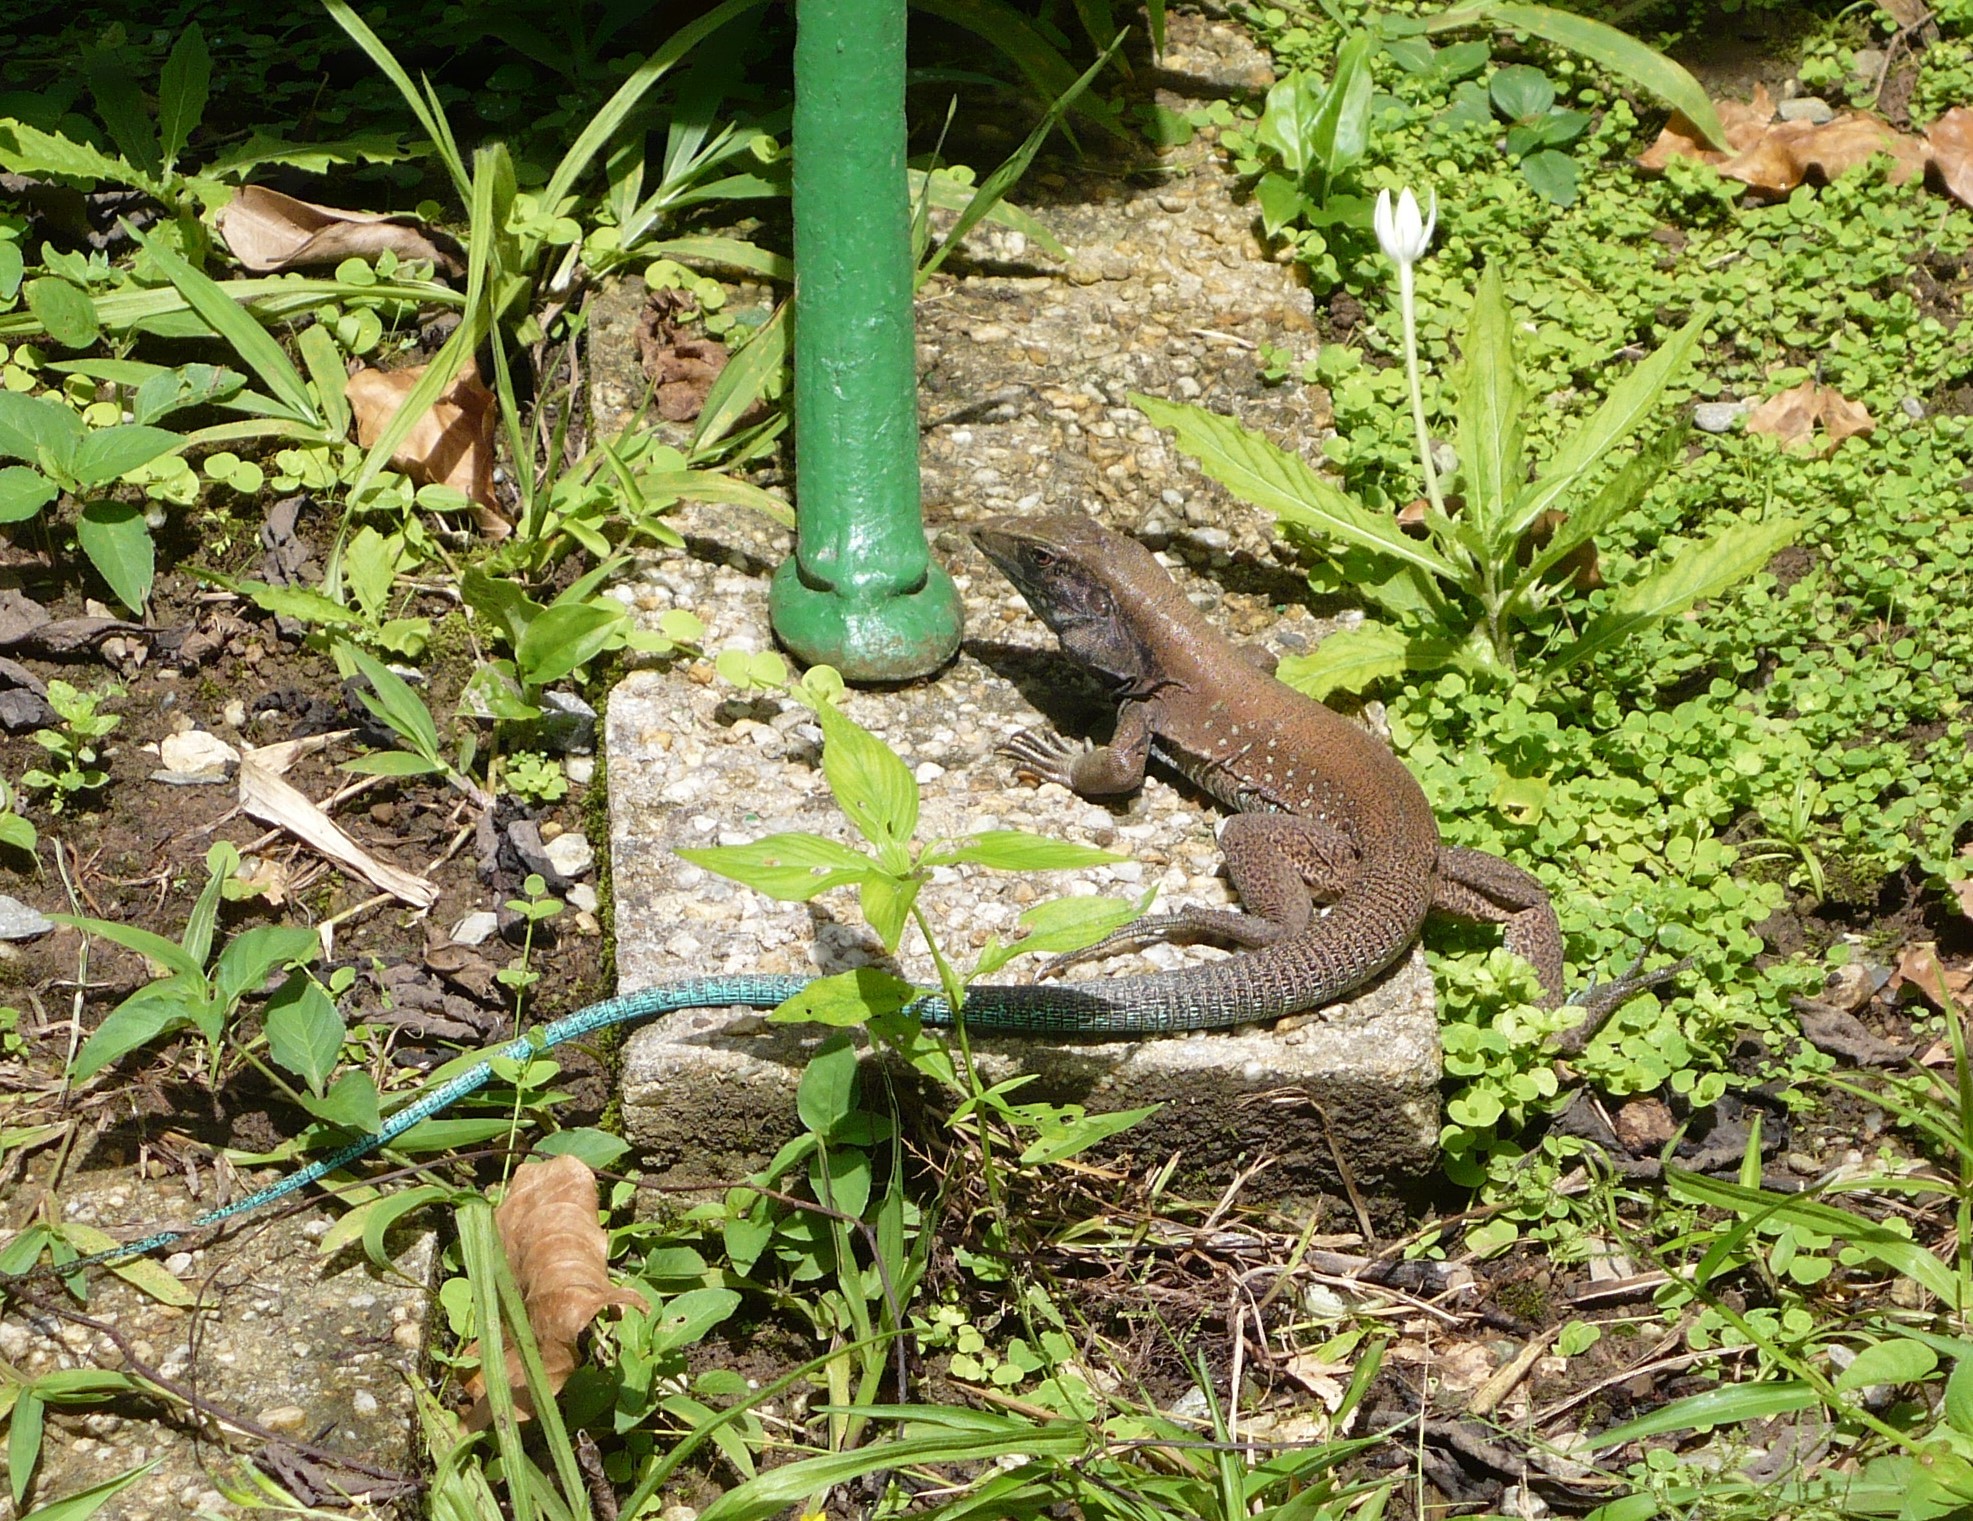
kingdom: Animalia
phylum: Chordata
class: Squamata
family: Teiidae
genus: Ameiva
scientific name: Ameiva atrigularis
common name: Venezuelan ameiva
